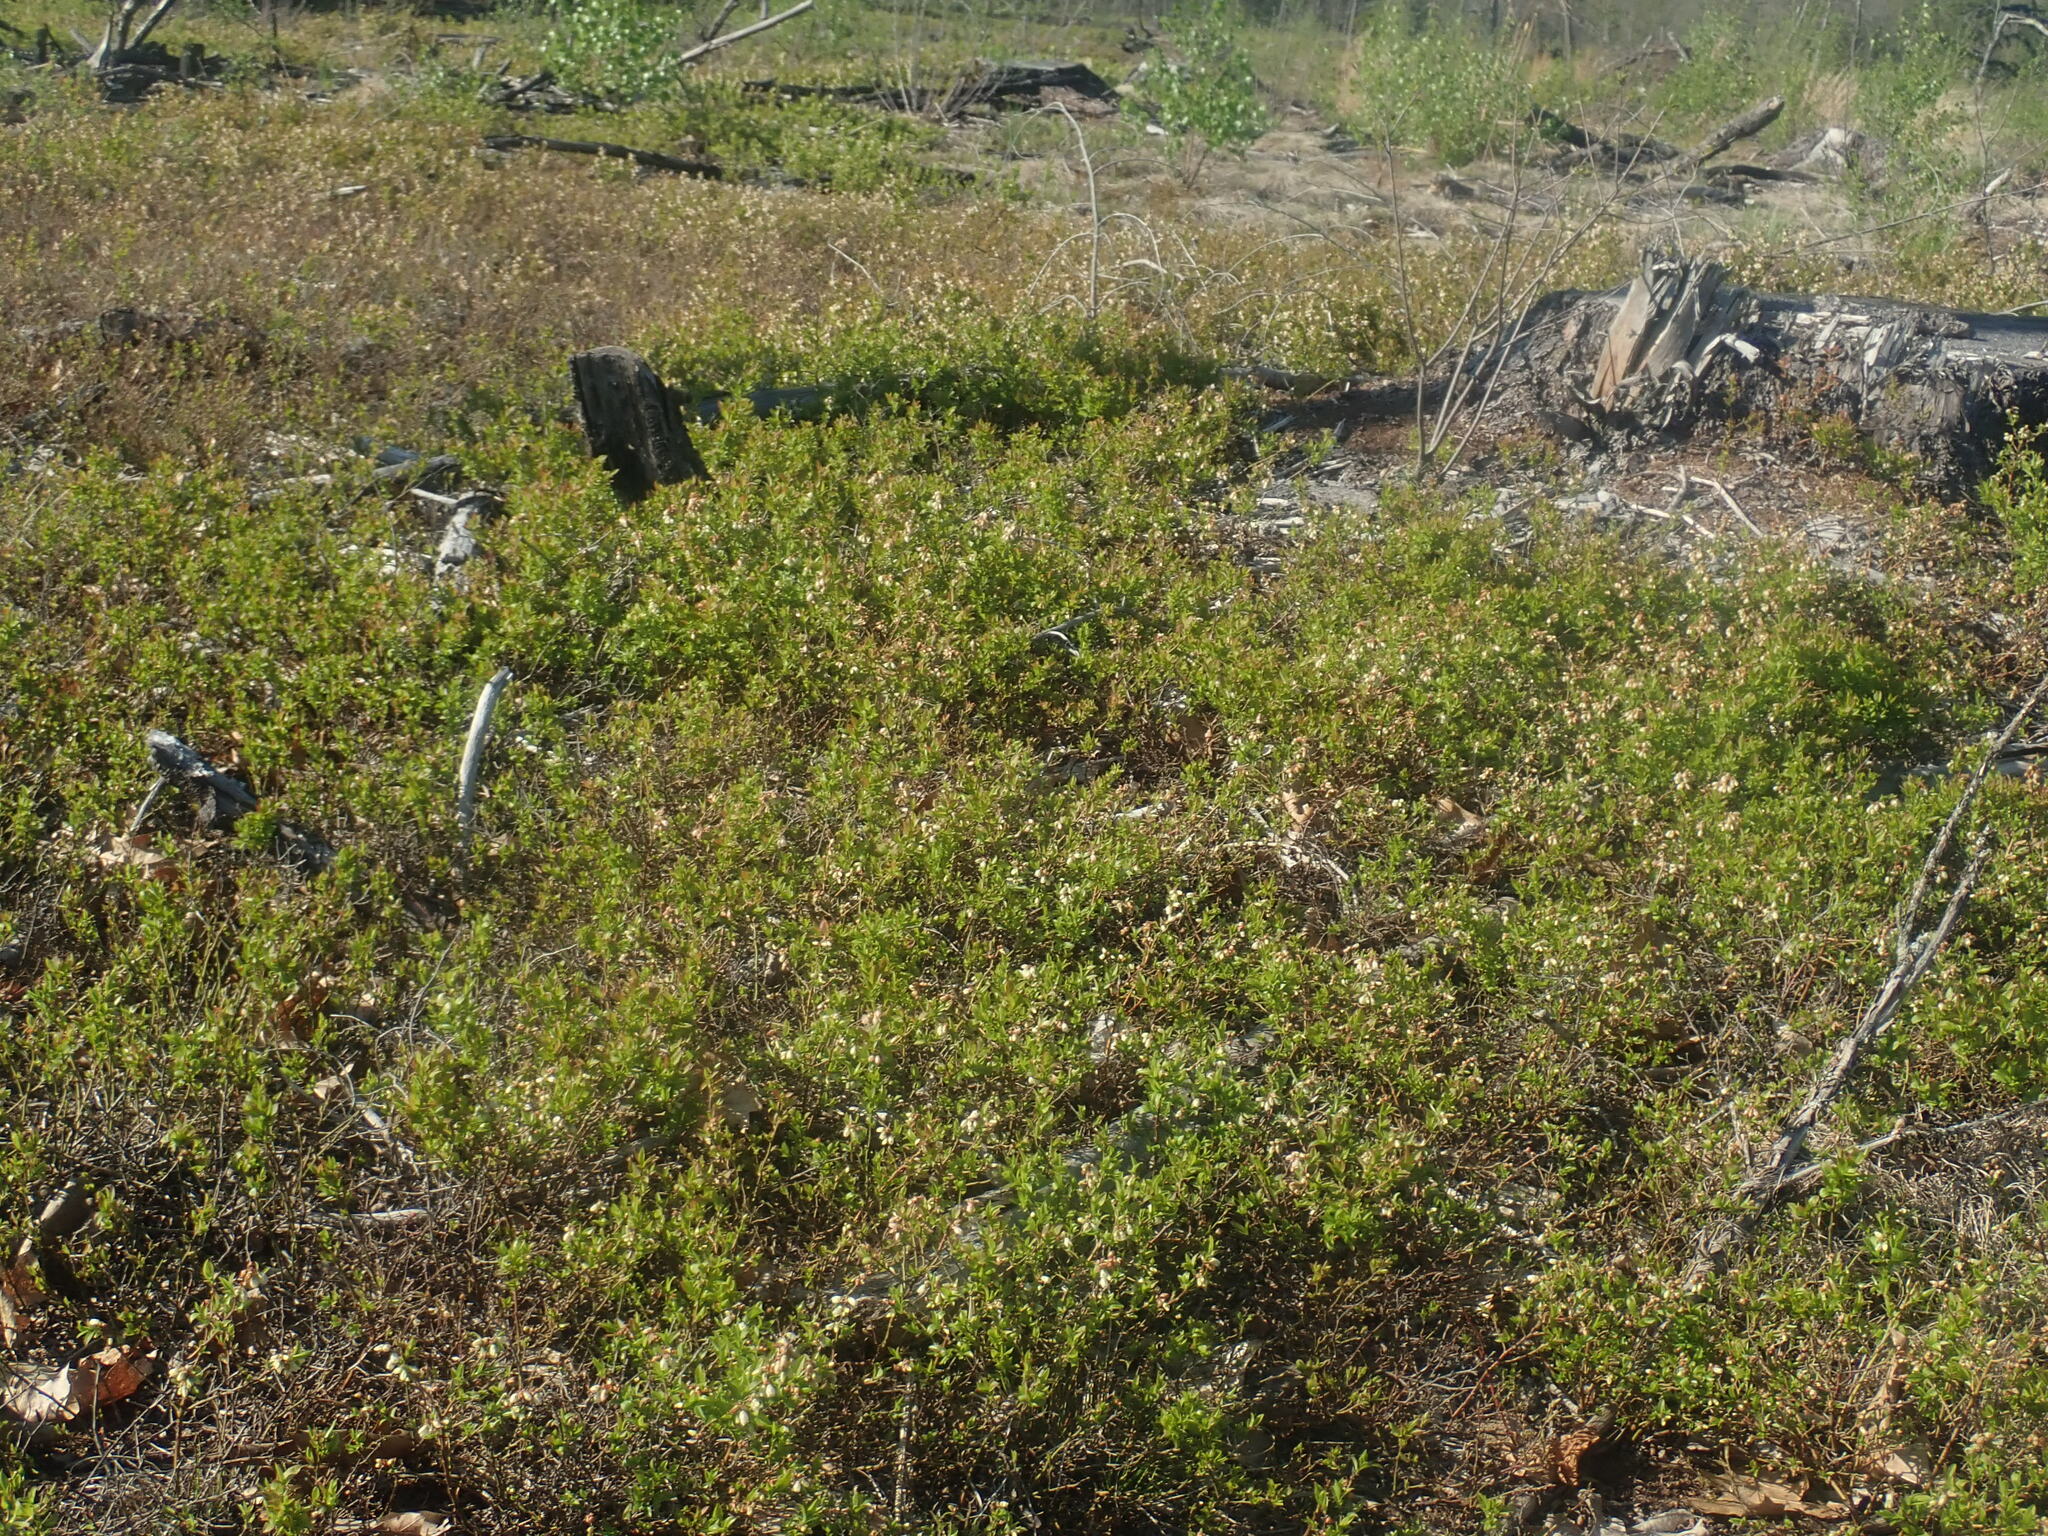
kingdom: Plantae
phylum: Tracheophyta
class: Magnoliopsida
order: Ericales
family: Ericaceae
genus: Vaccinium
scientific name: Vaccinium angustifolium
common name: Early lowbush blueberry
